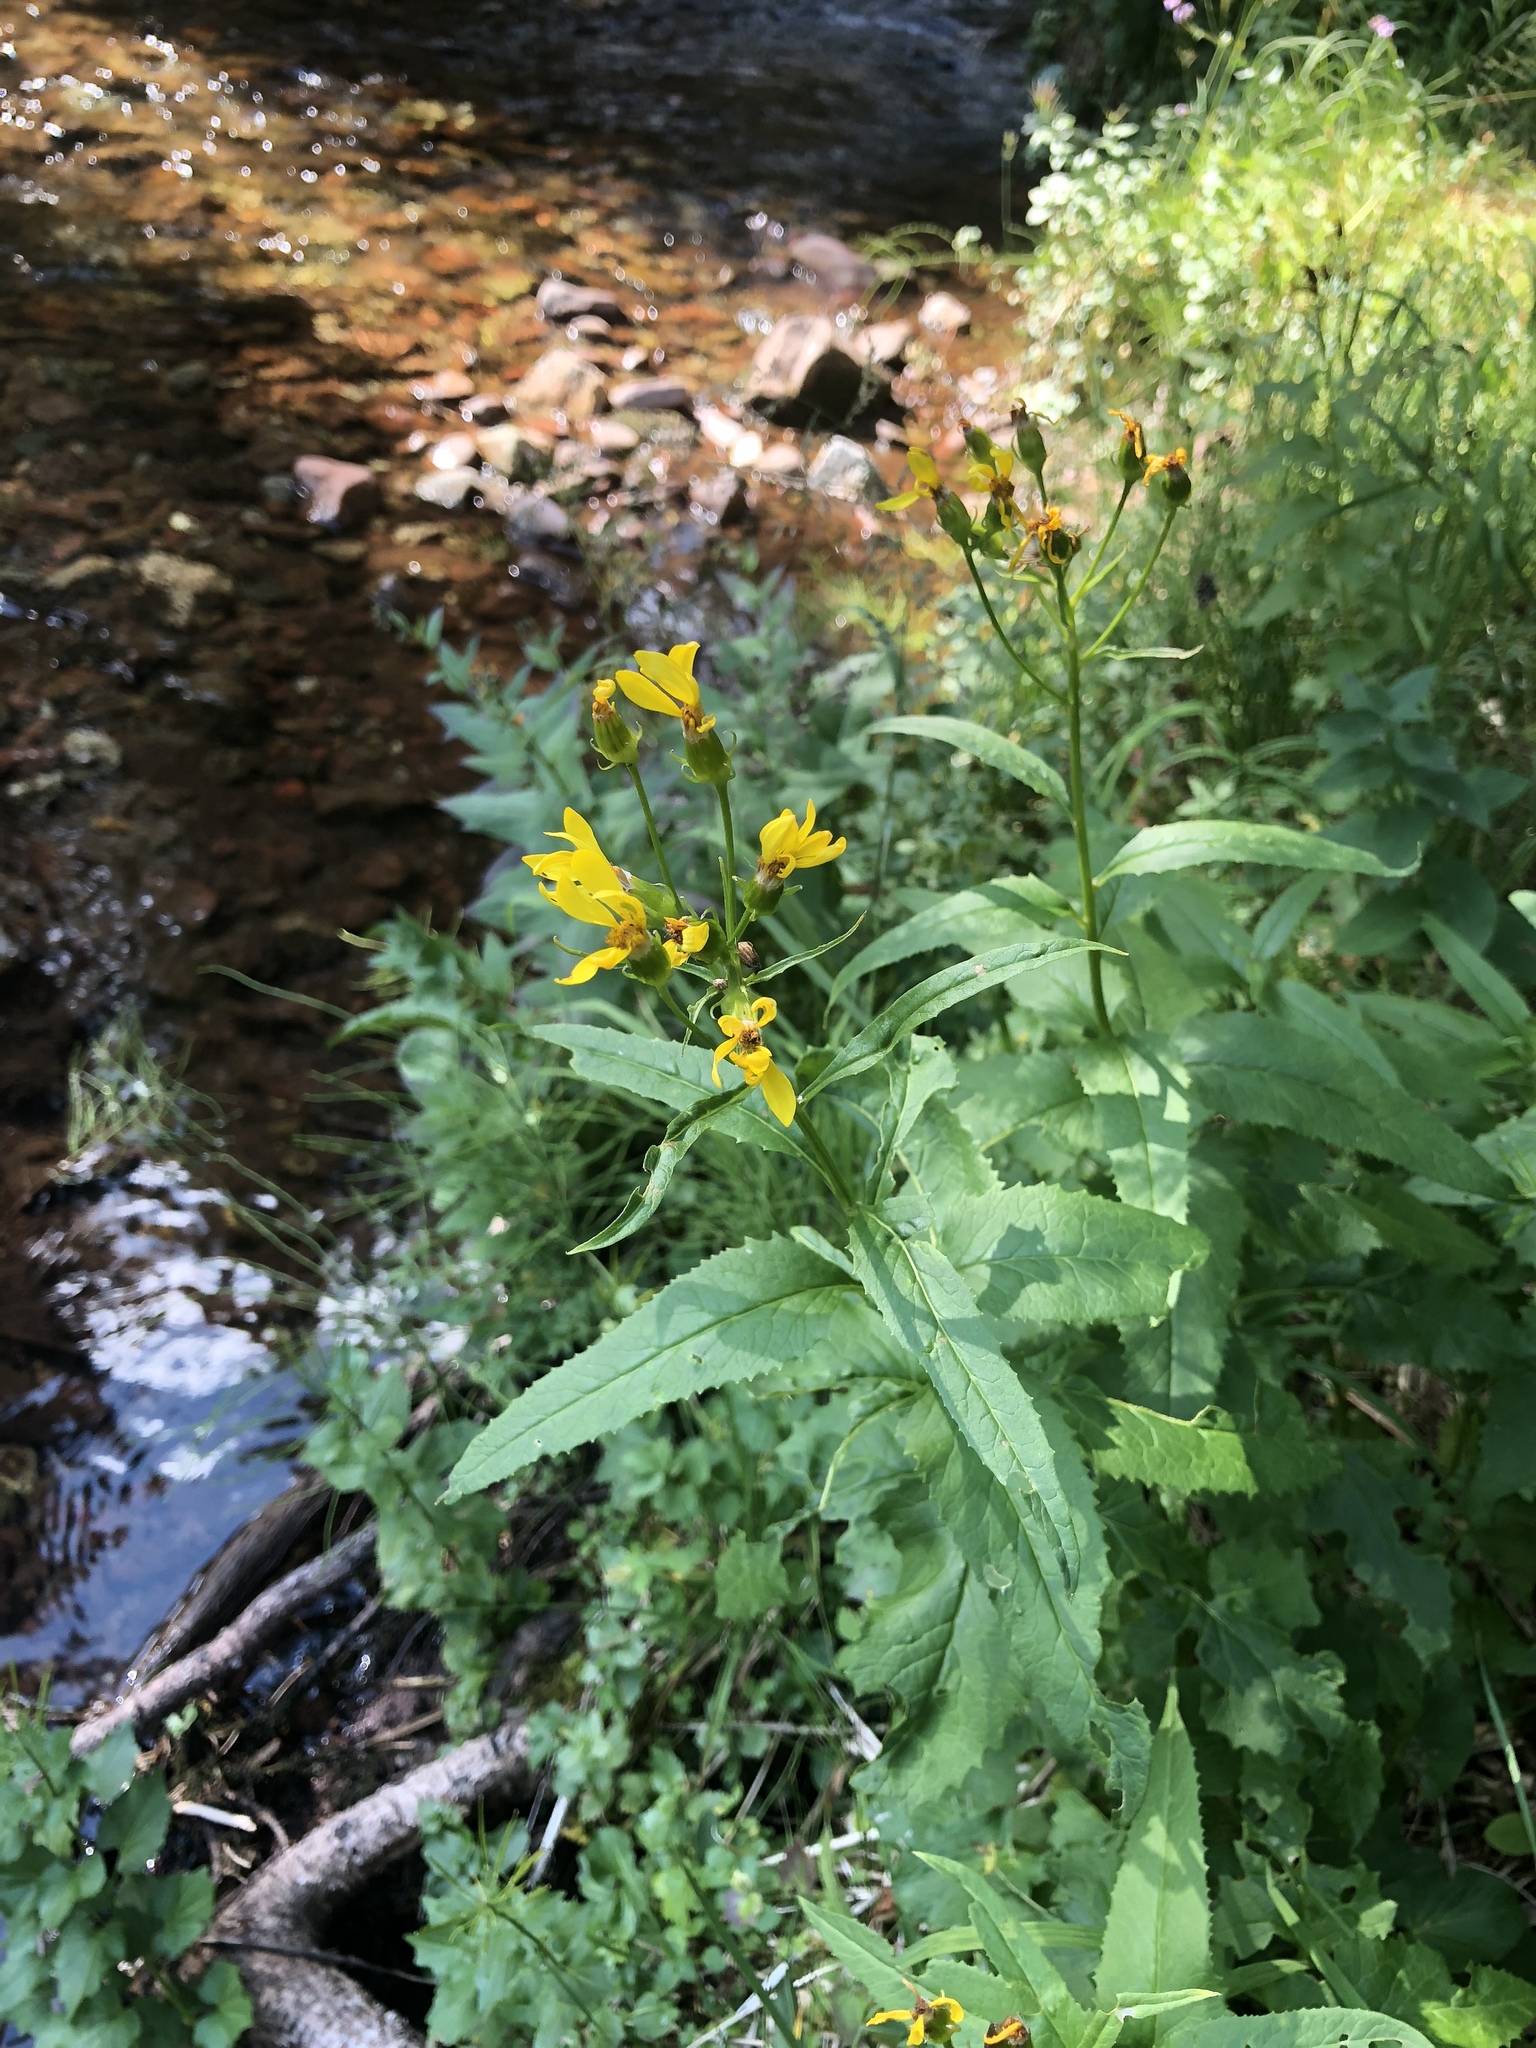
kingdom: Plantae
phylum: Tracheophyta
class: Magnoliopsida
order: Asterales
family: Asteraceae
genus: Senecio
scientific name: Senecio triangularis
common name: Arrowleaf butterweed
